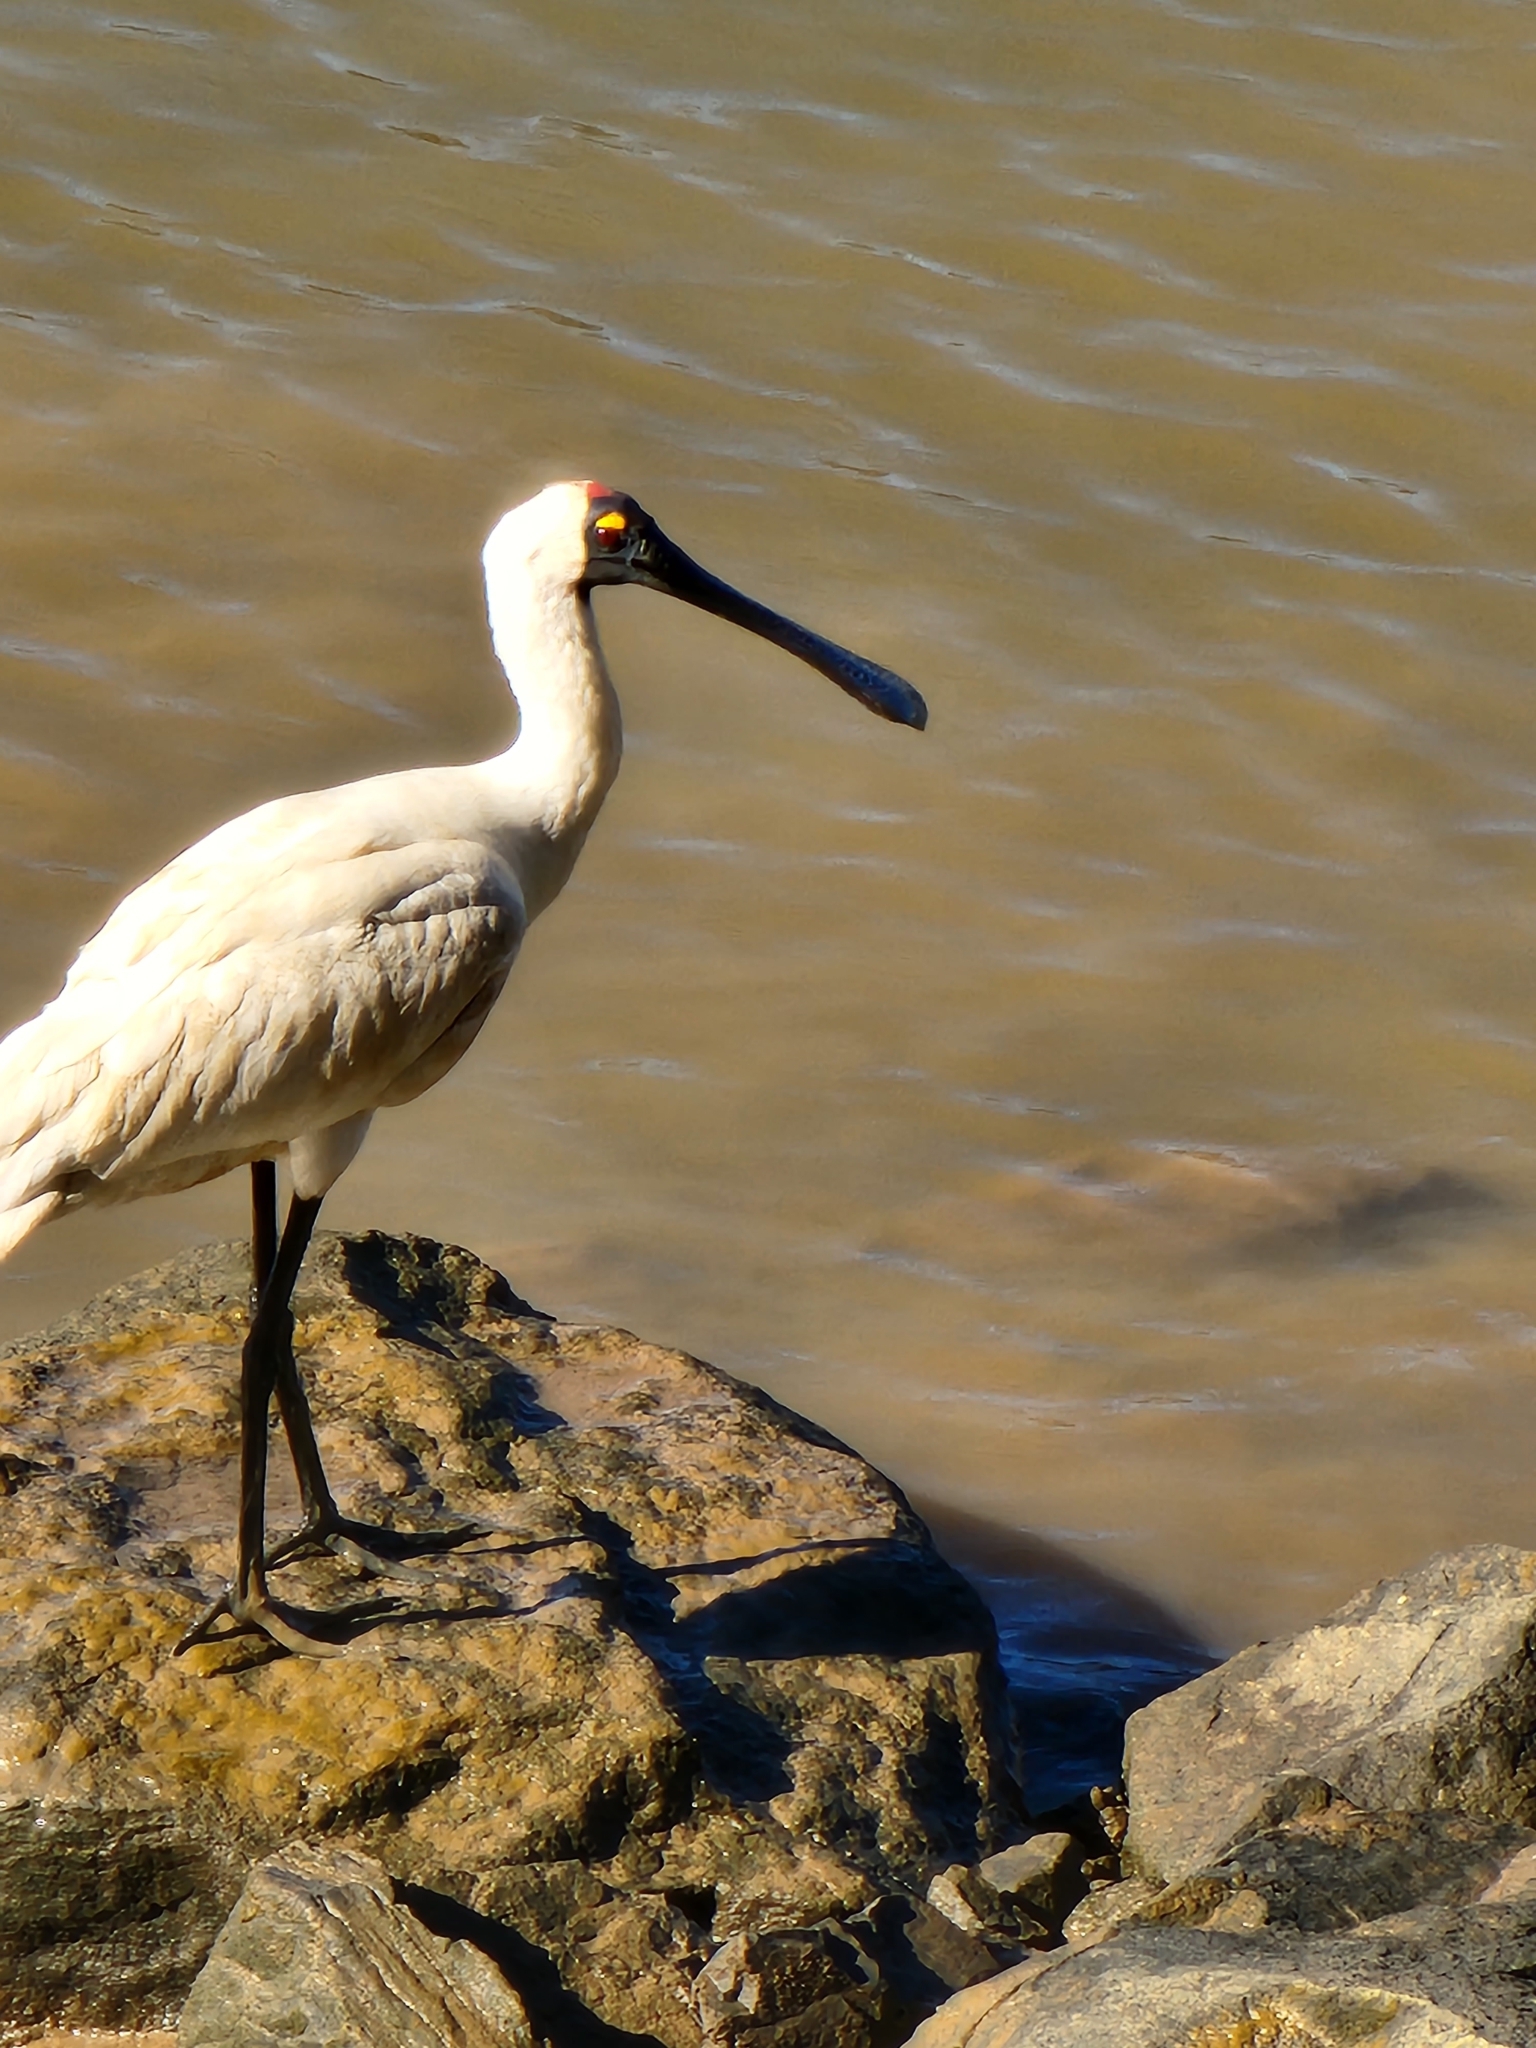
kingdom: Animalia
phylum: Chordata
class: Aves
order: Pelecaniformes
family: Threskiornithidae
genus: Platalea
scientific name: Platalea regia
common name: Royal spoonbill
